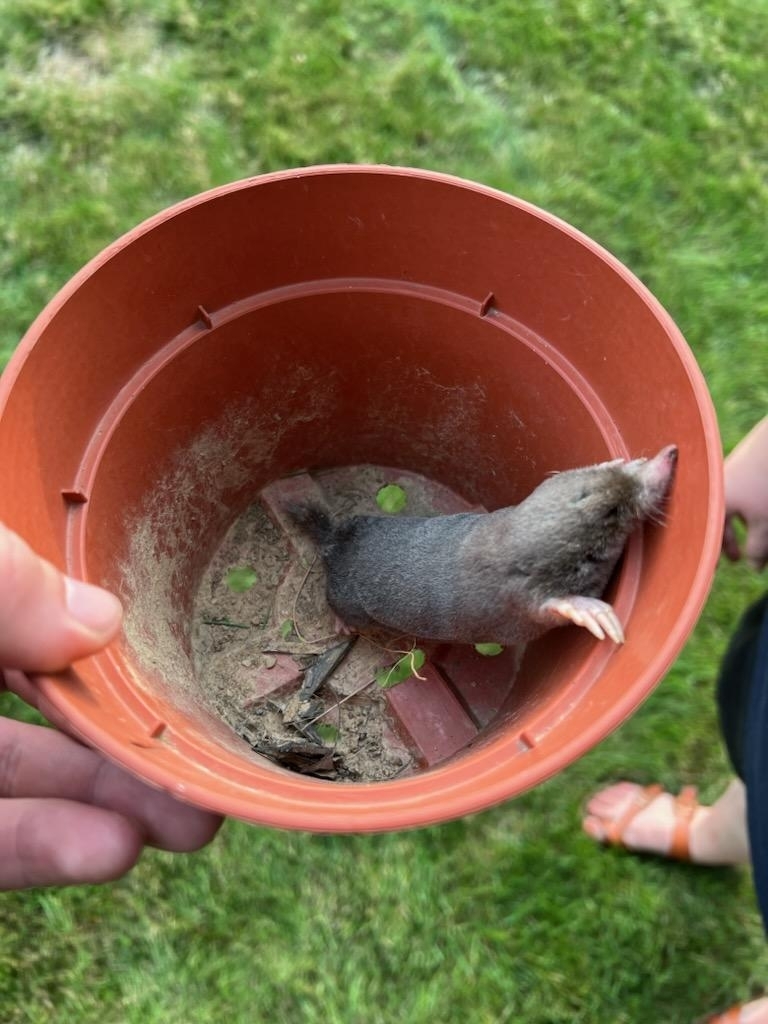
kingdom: Animalia
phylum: Chordata
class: Mammalia
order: Soricomorpha
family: Talpidae
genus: Parascalops
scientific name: Parascalops breweri
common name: Hairy-tailed mole
